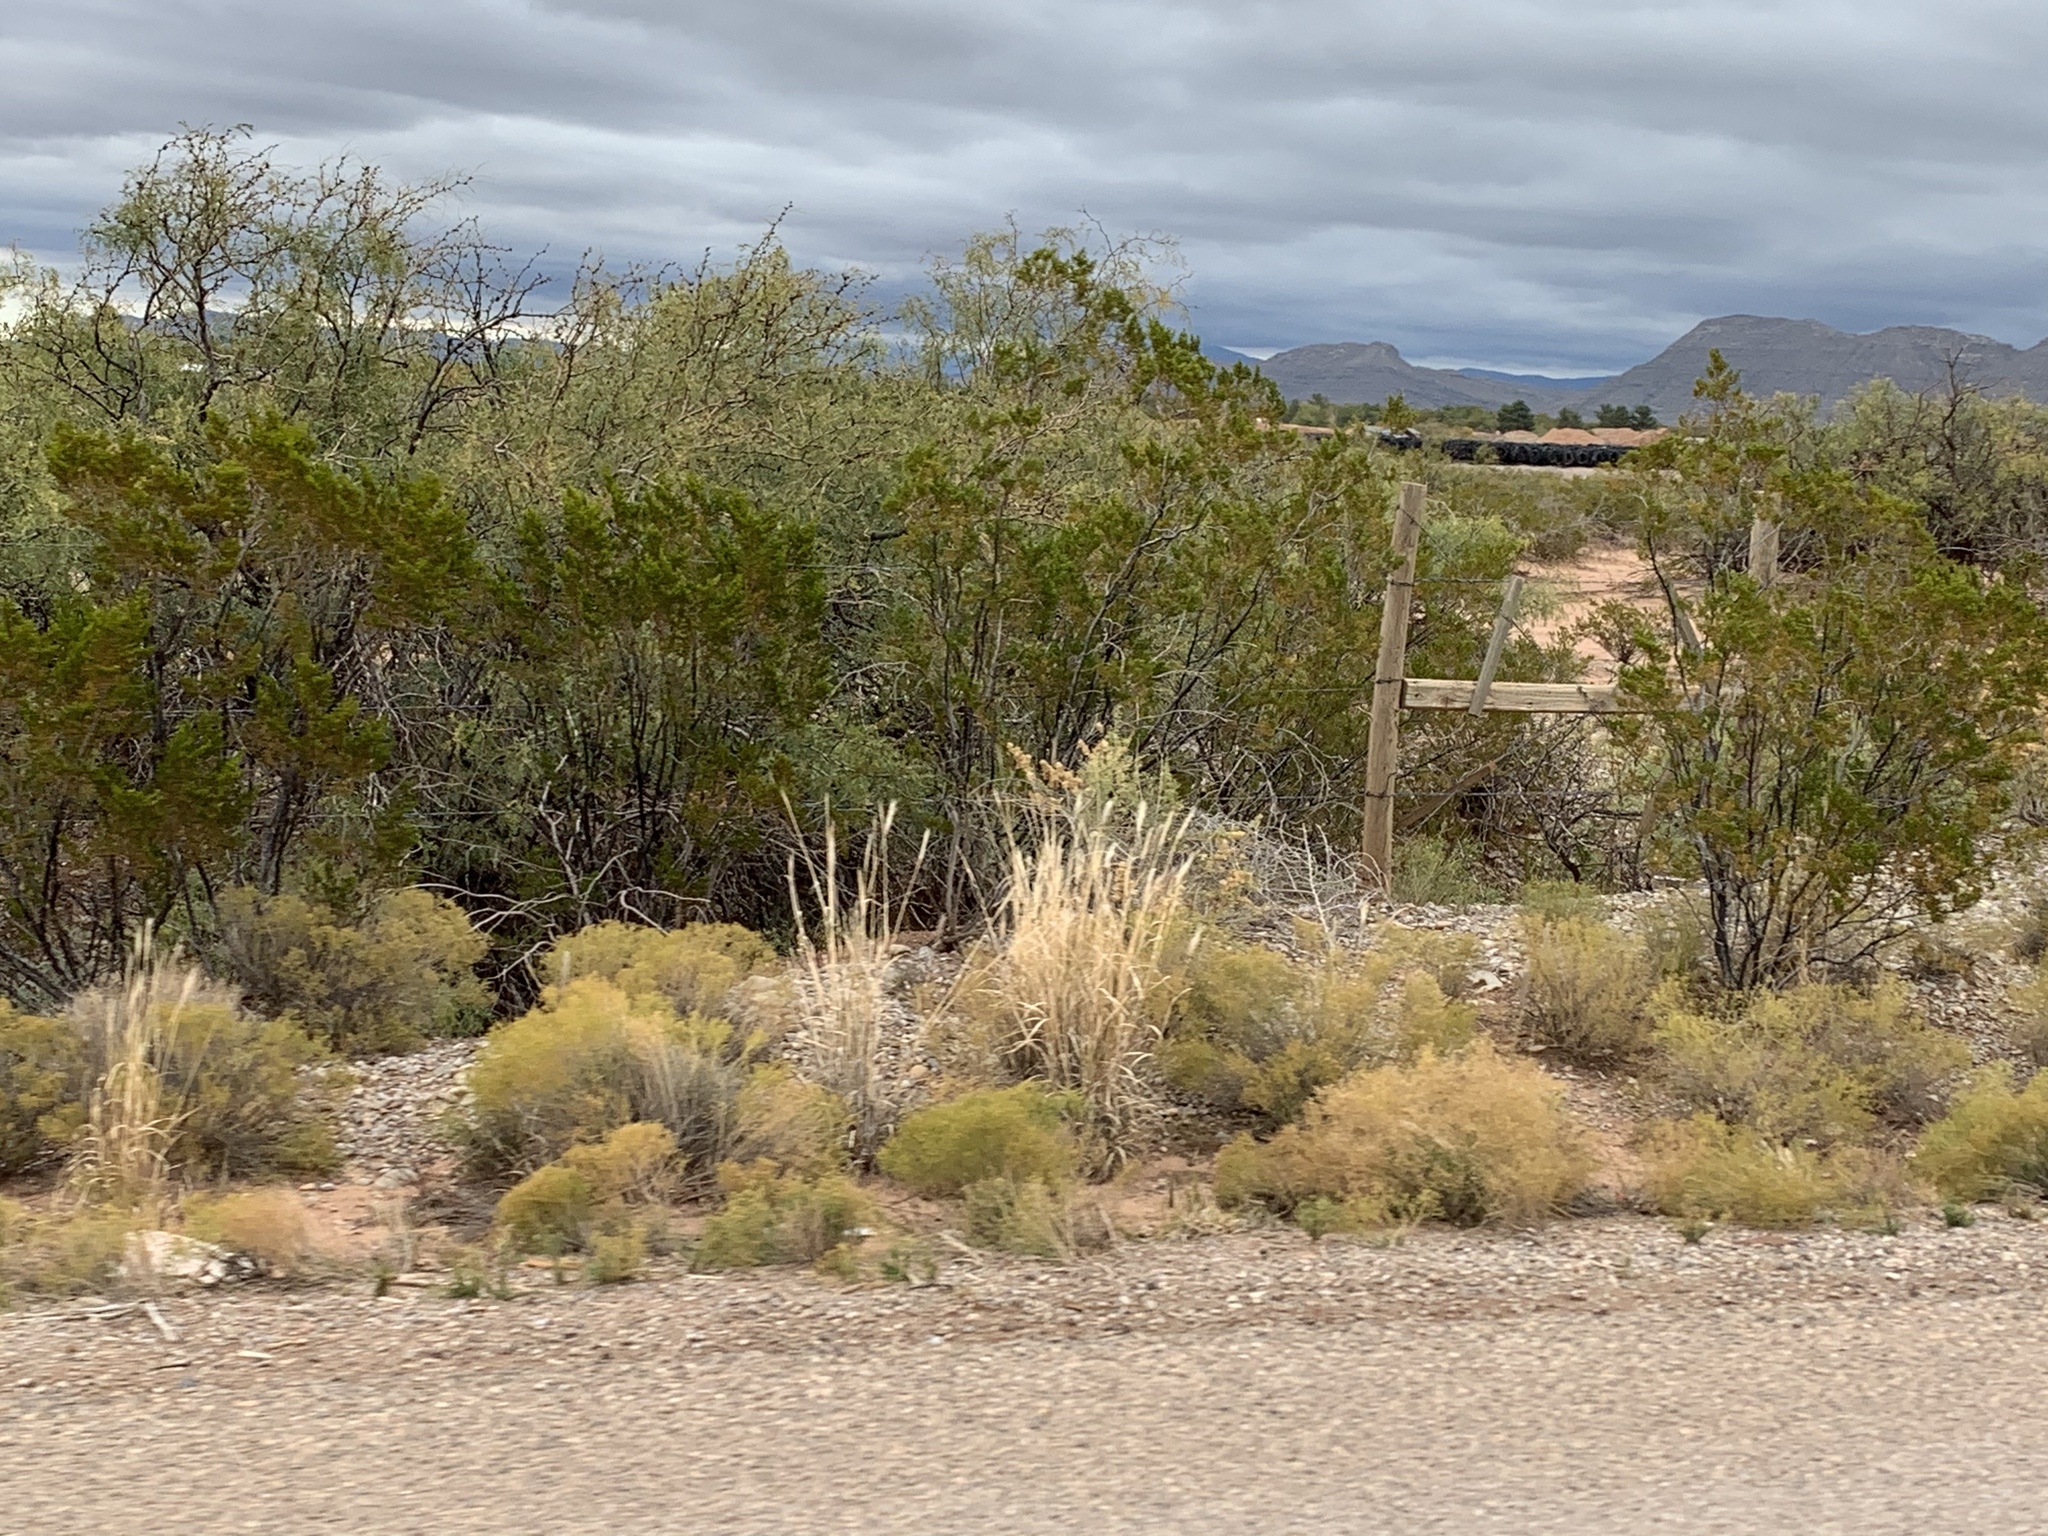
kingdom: Plantae
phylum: Tracheophyta
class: Magnoliopsida
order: Zygophyllales
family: Zygophyllaceae
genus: Larrea
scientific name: Larrea tridentata
